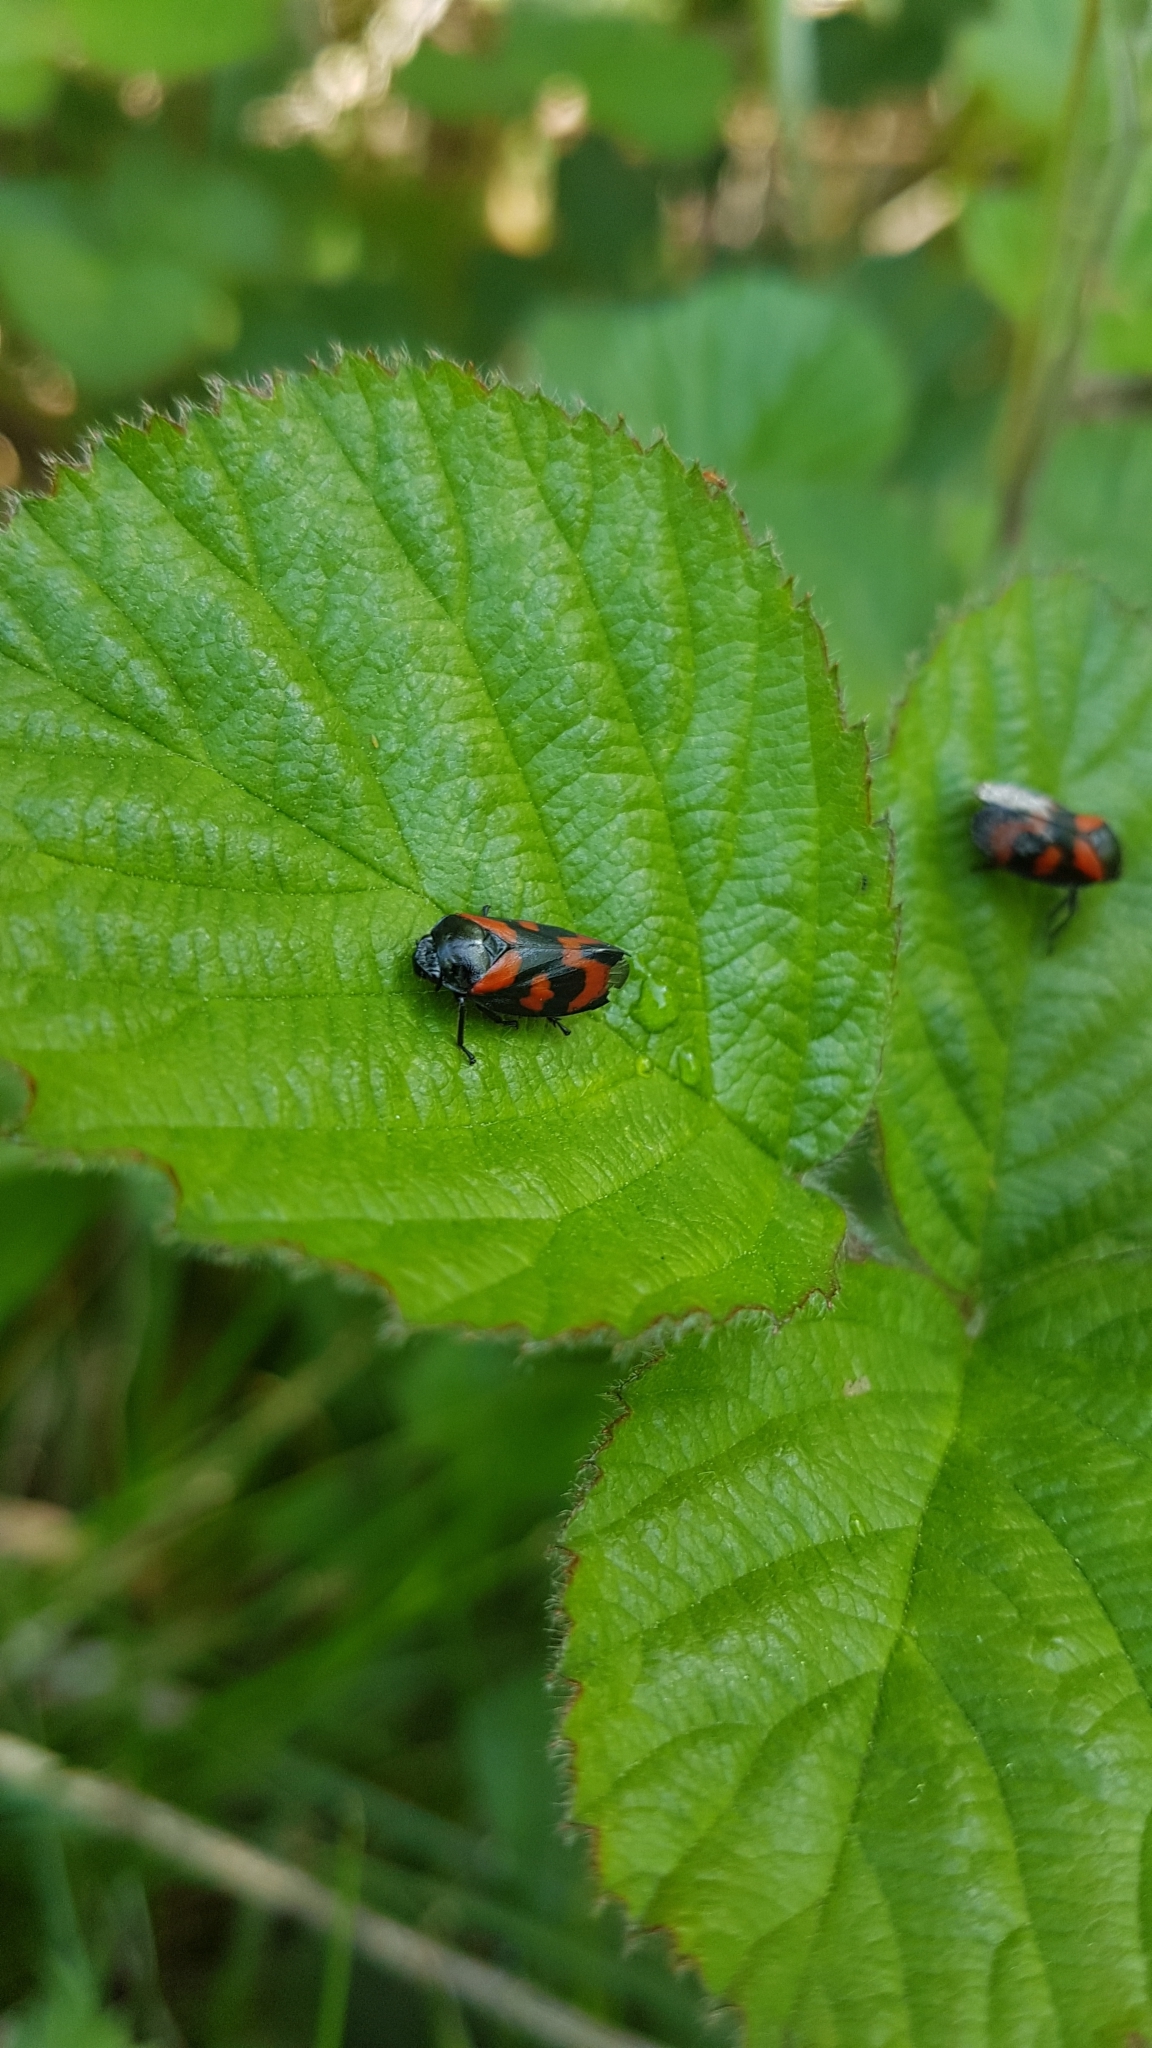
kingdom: Animalia
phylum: Arthropoda
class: Insecta
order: Hemiptera
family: Cercopidae
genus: Cercopis
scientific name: Cercopis vulnerata
